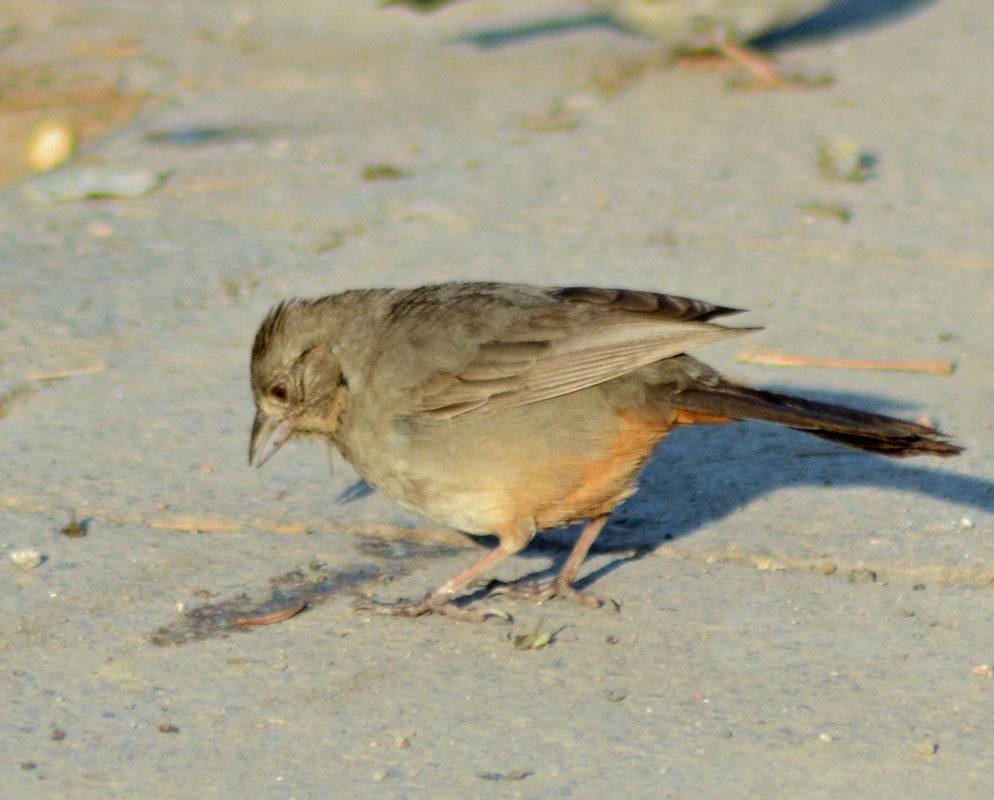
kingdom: Animalia
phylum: Chordata
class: Aves
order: Passeriformes
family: Passerellidae
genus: Melozone
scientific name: Melozone fusca
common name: Canyon towhee
